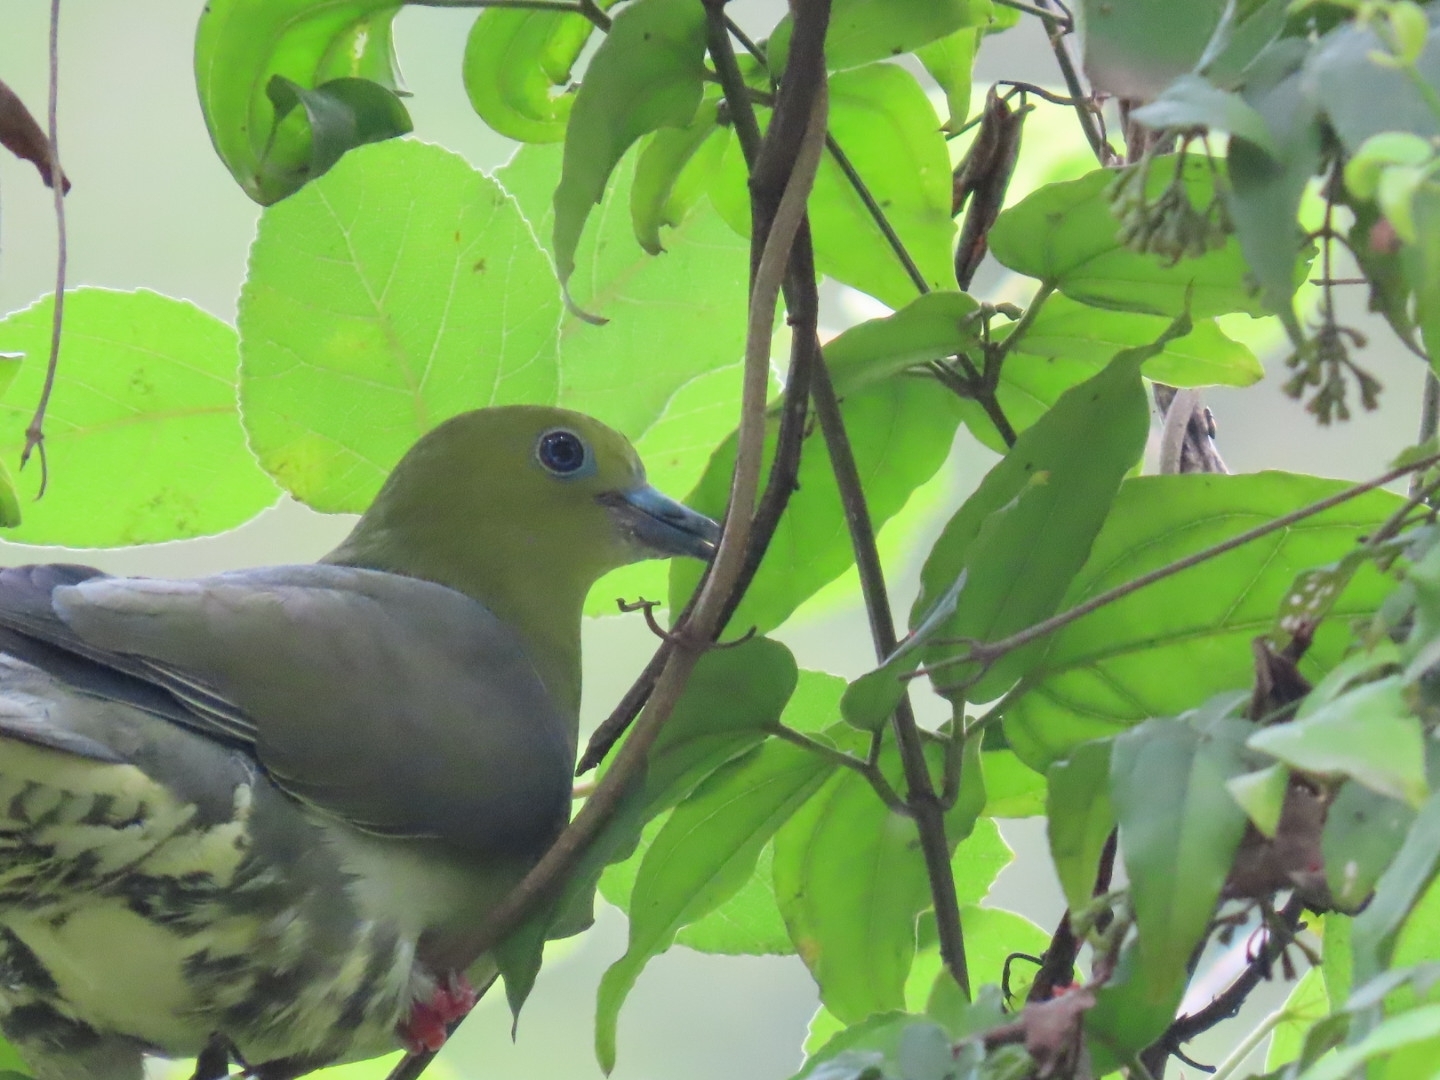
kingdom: Animalia
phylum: Chordata
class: Aves
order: Columbiformes
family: Columbidae
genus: Treron
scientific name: Treron sphenurus
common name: Wedge-tailed green pigeon
